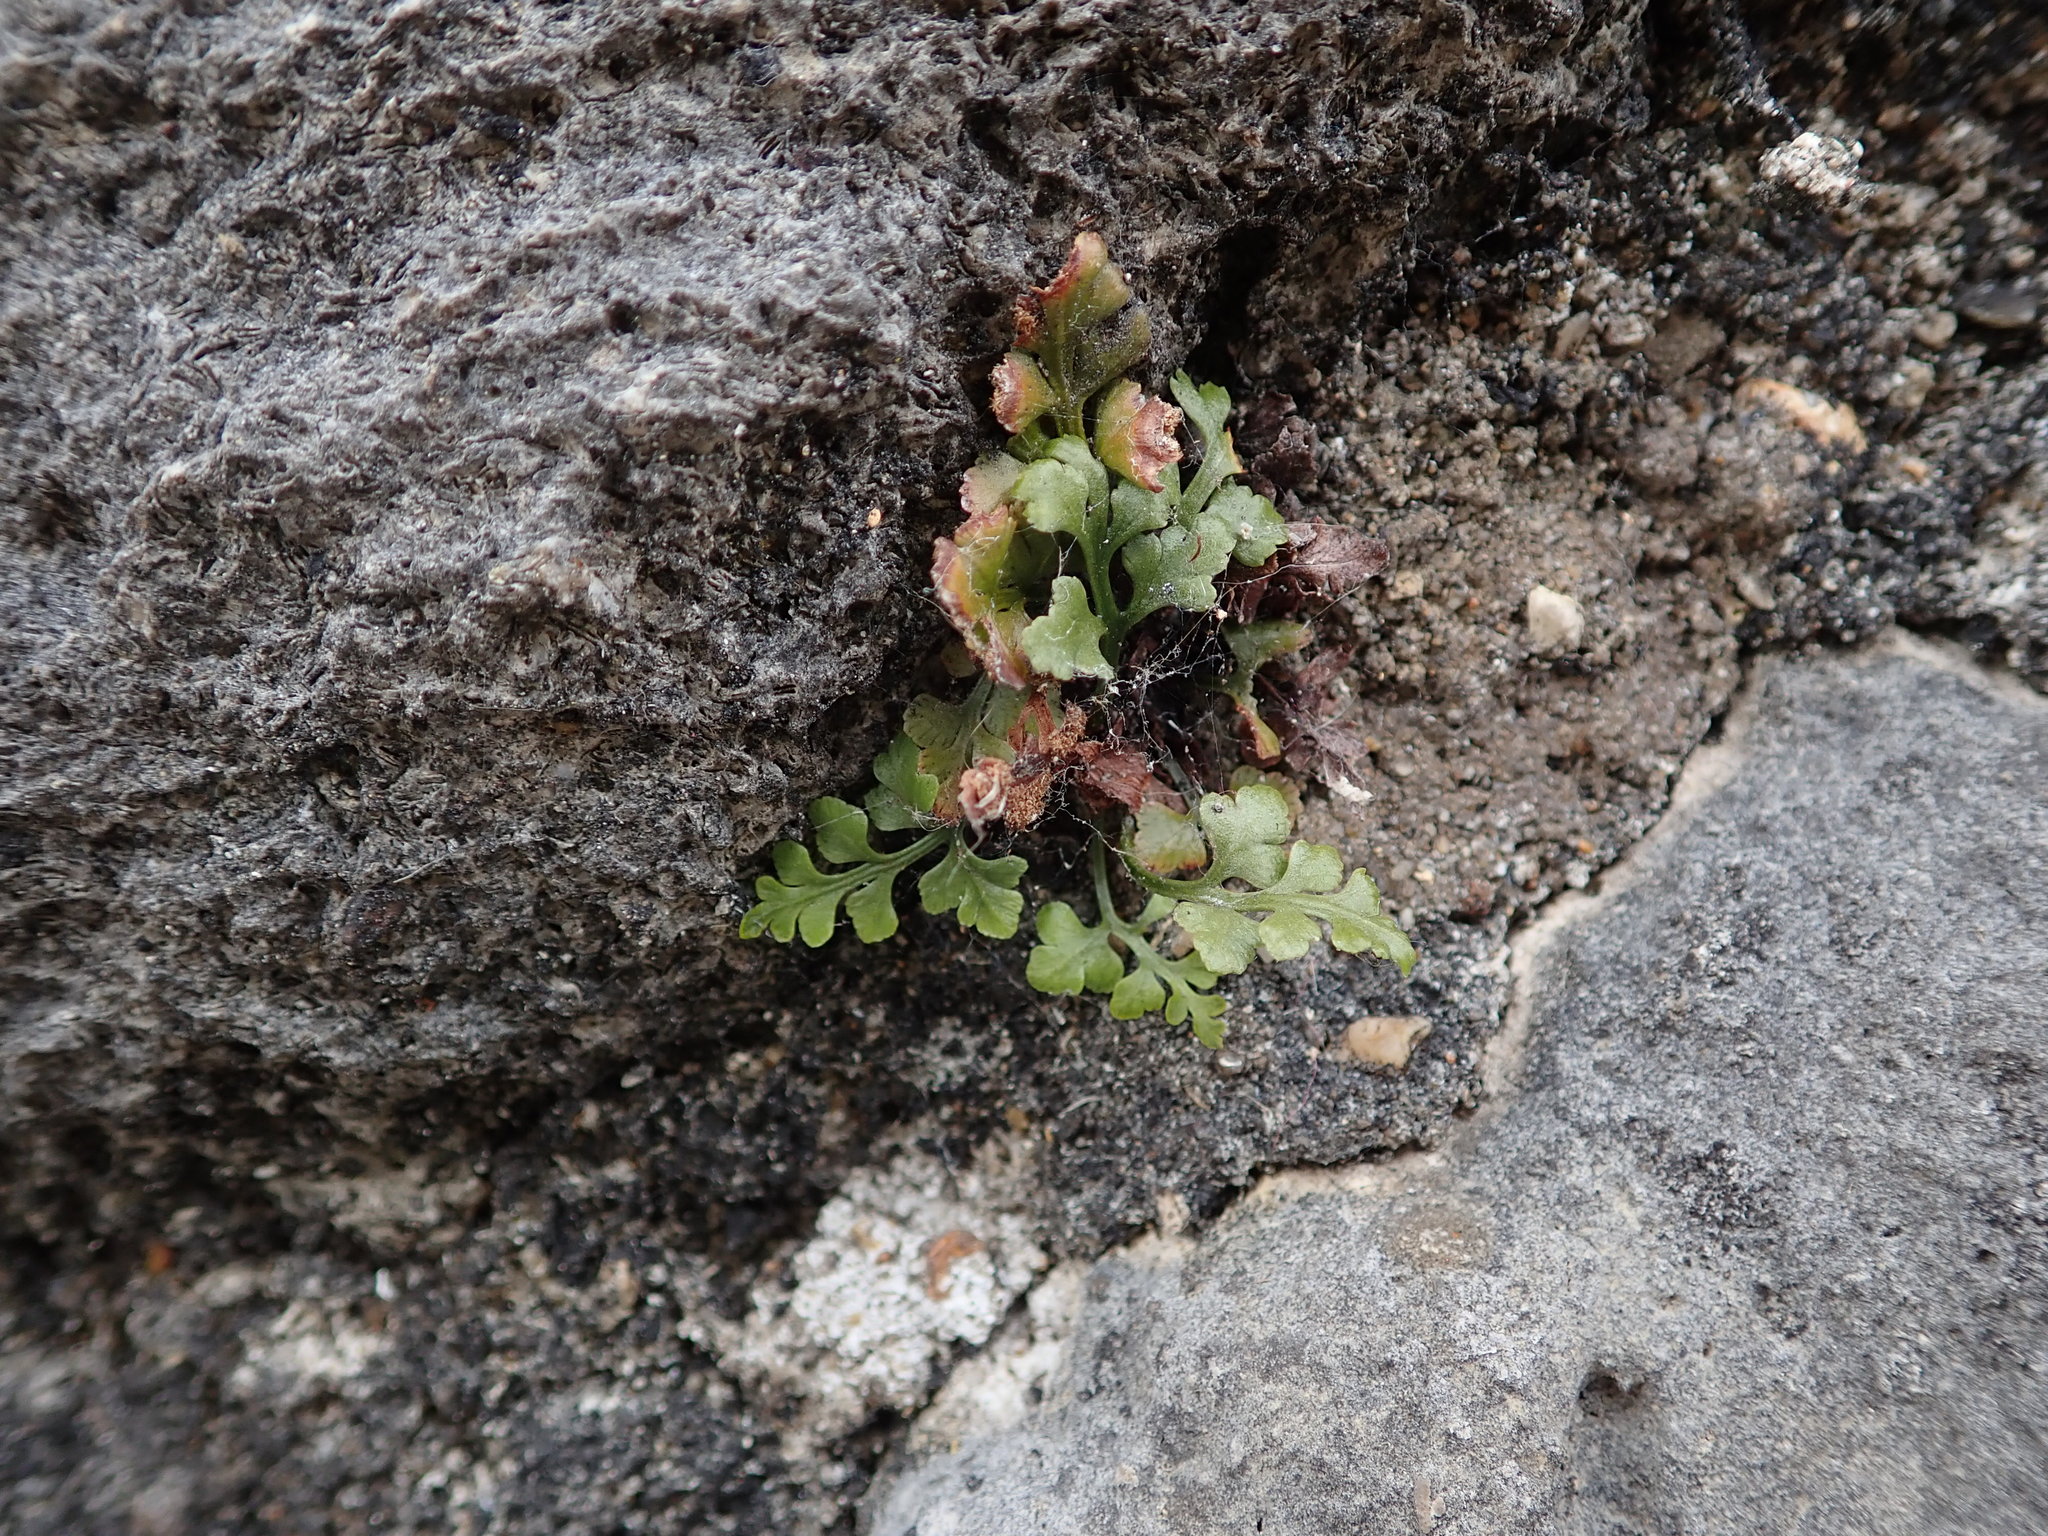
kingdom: Plantae
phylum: Tracheophyta
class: Polypodiopsida
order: Polypodiales
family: Aspleniaceae
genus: Asplenium
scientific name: Asplenium ruta-muraria
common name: Wall-rue
